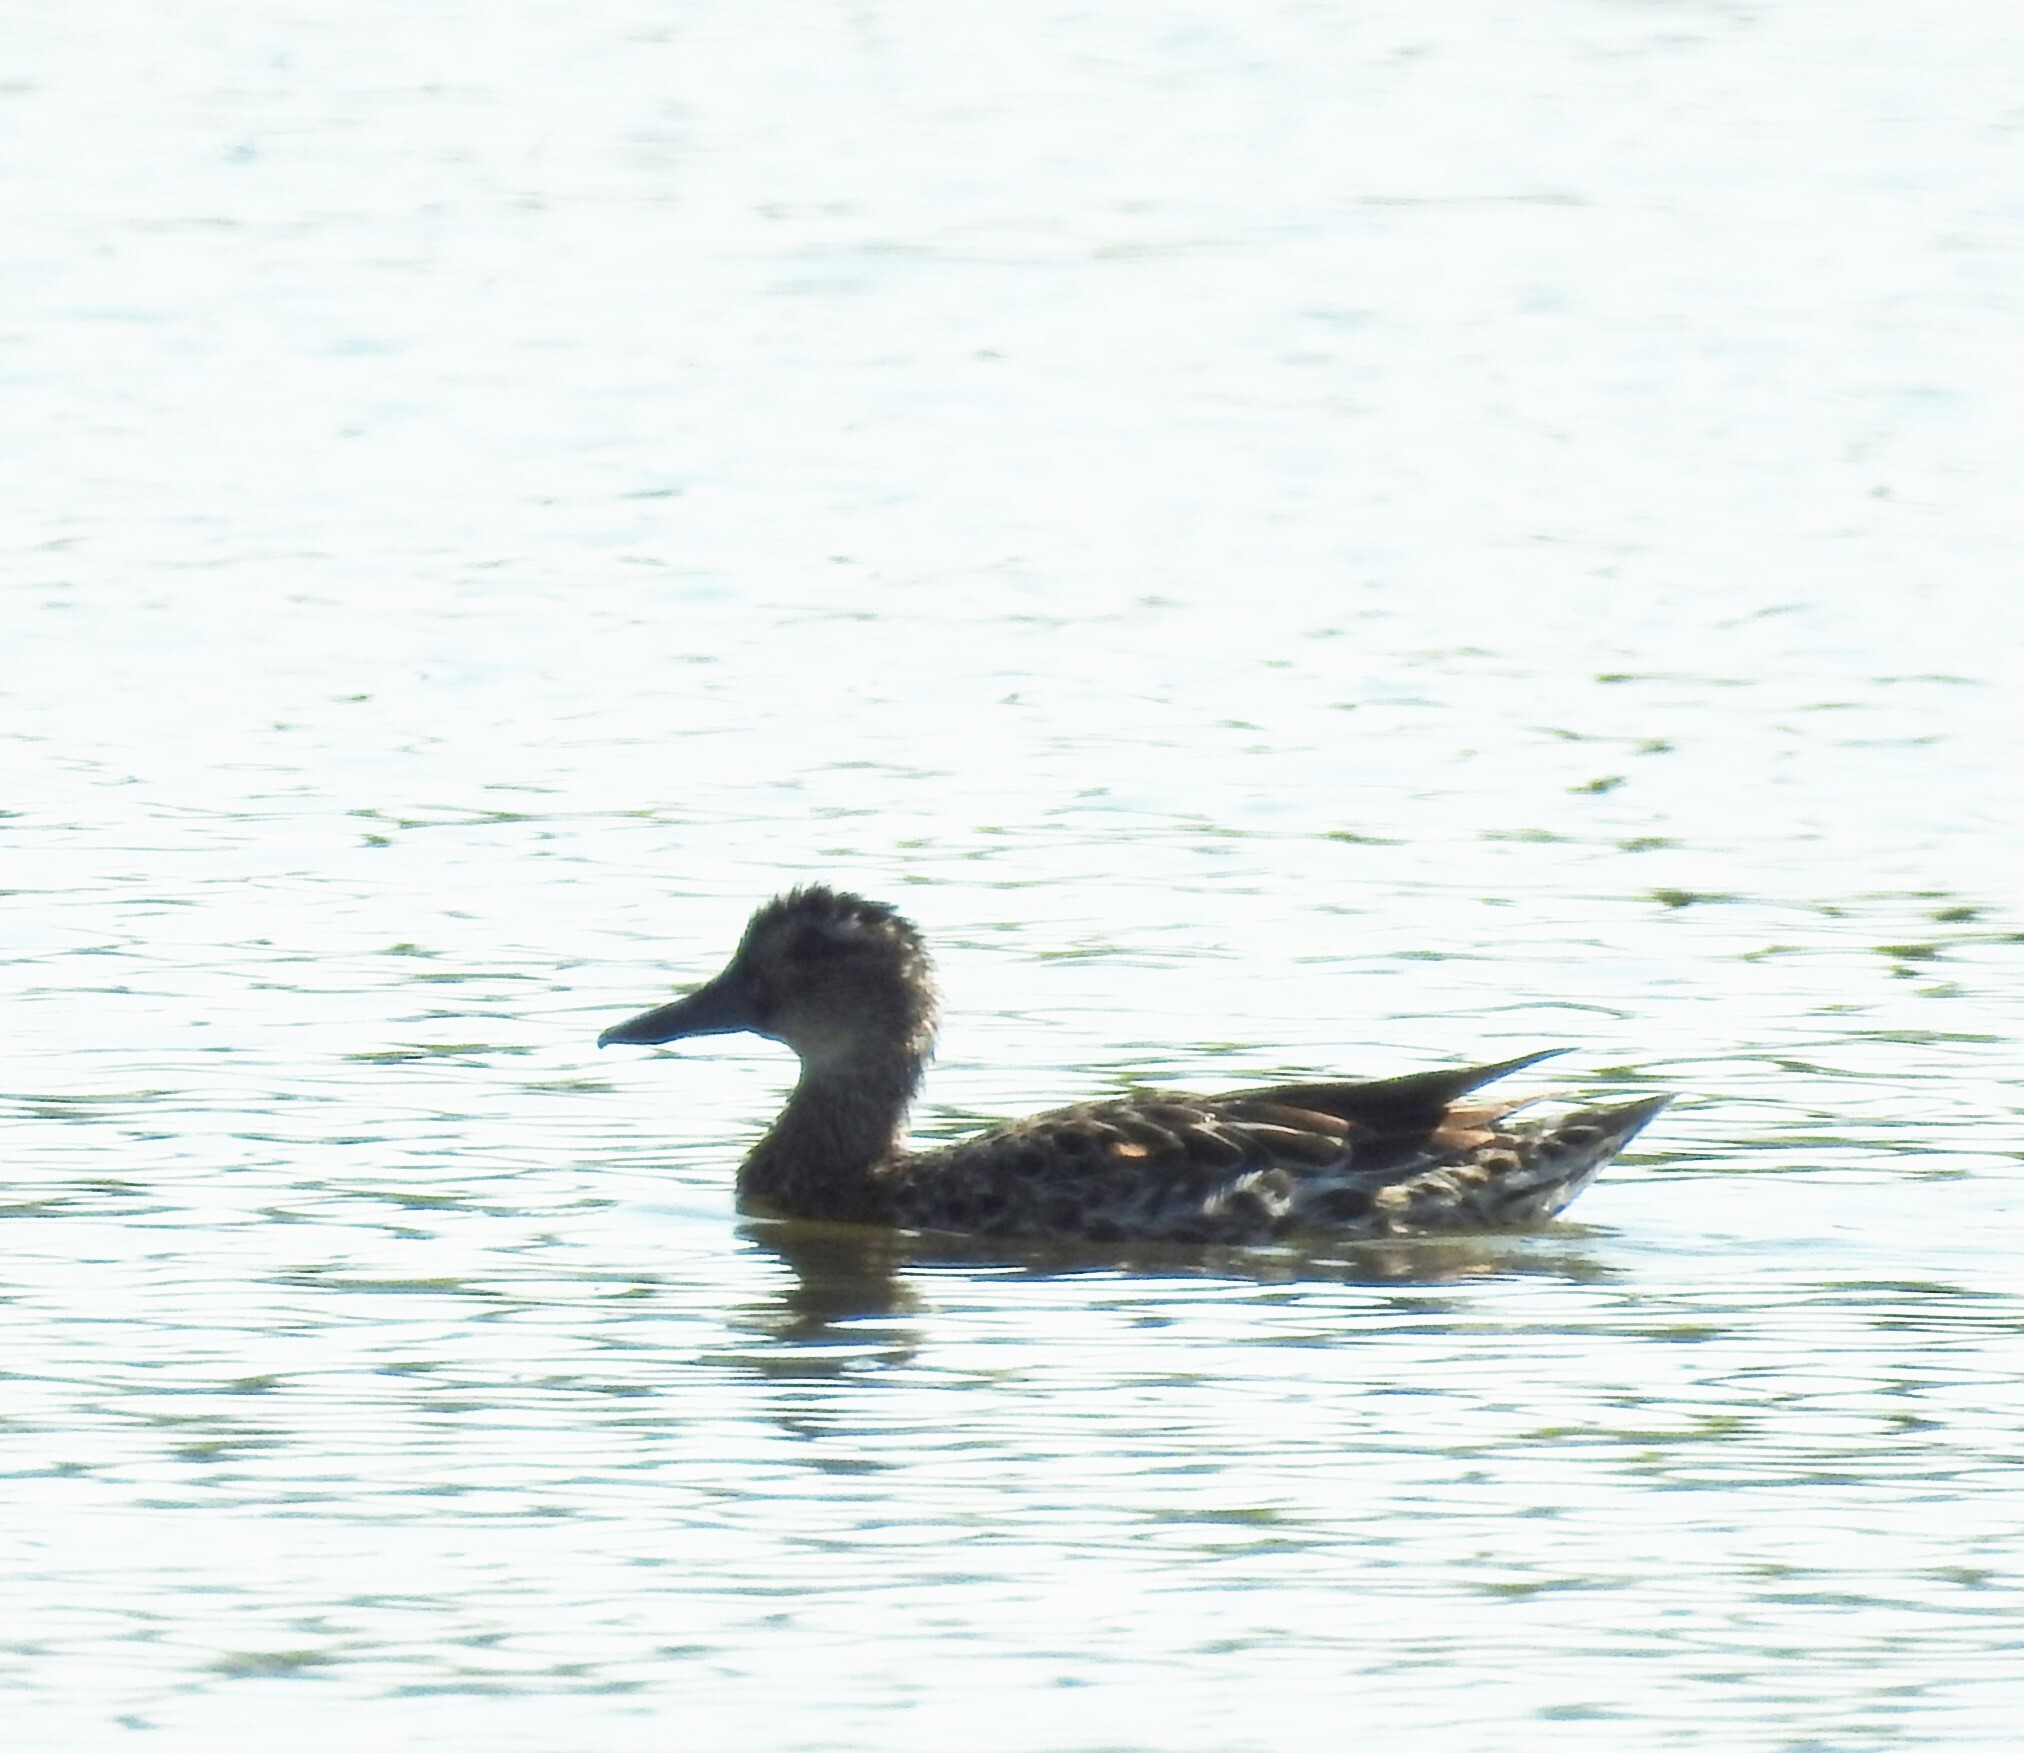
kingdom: Animalia
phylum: Chordata
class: Aves
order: Anseriformes
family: Anatidae
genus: Spatula
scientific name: Spatula querquedula
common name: Garganey
